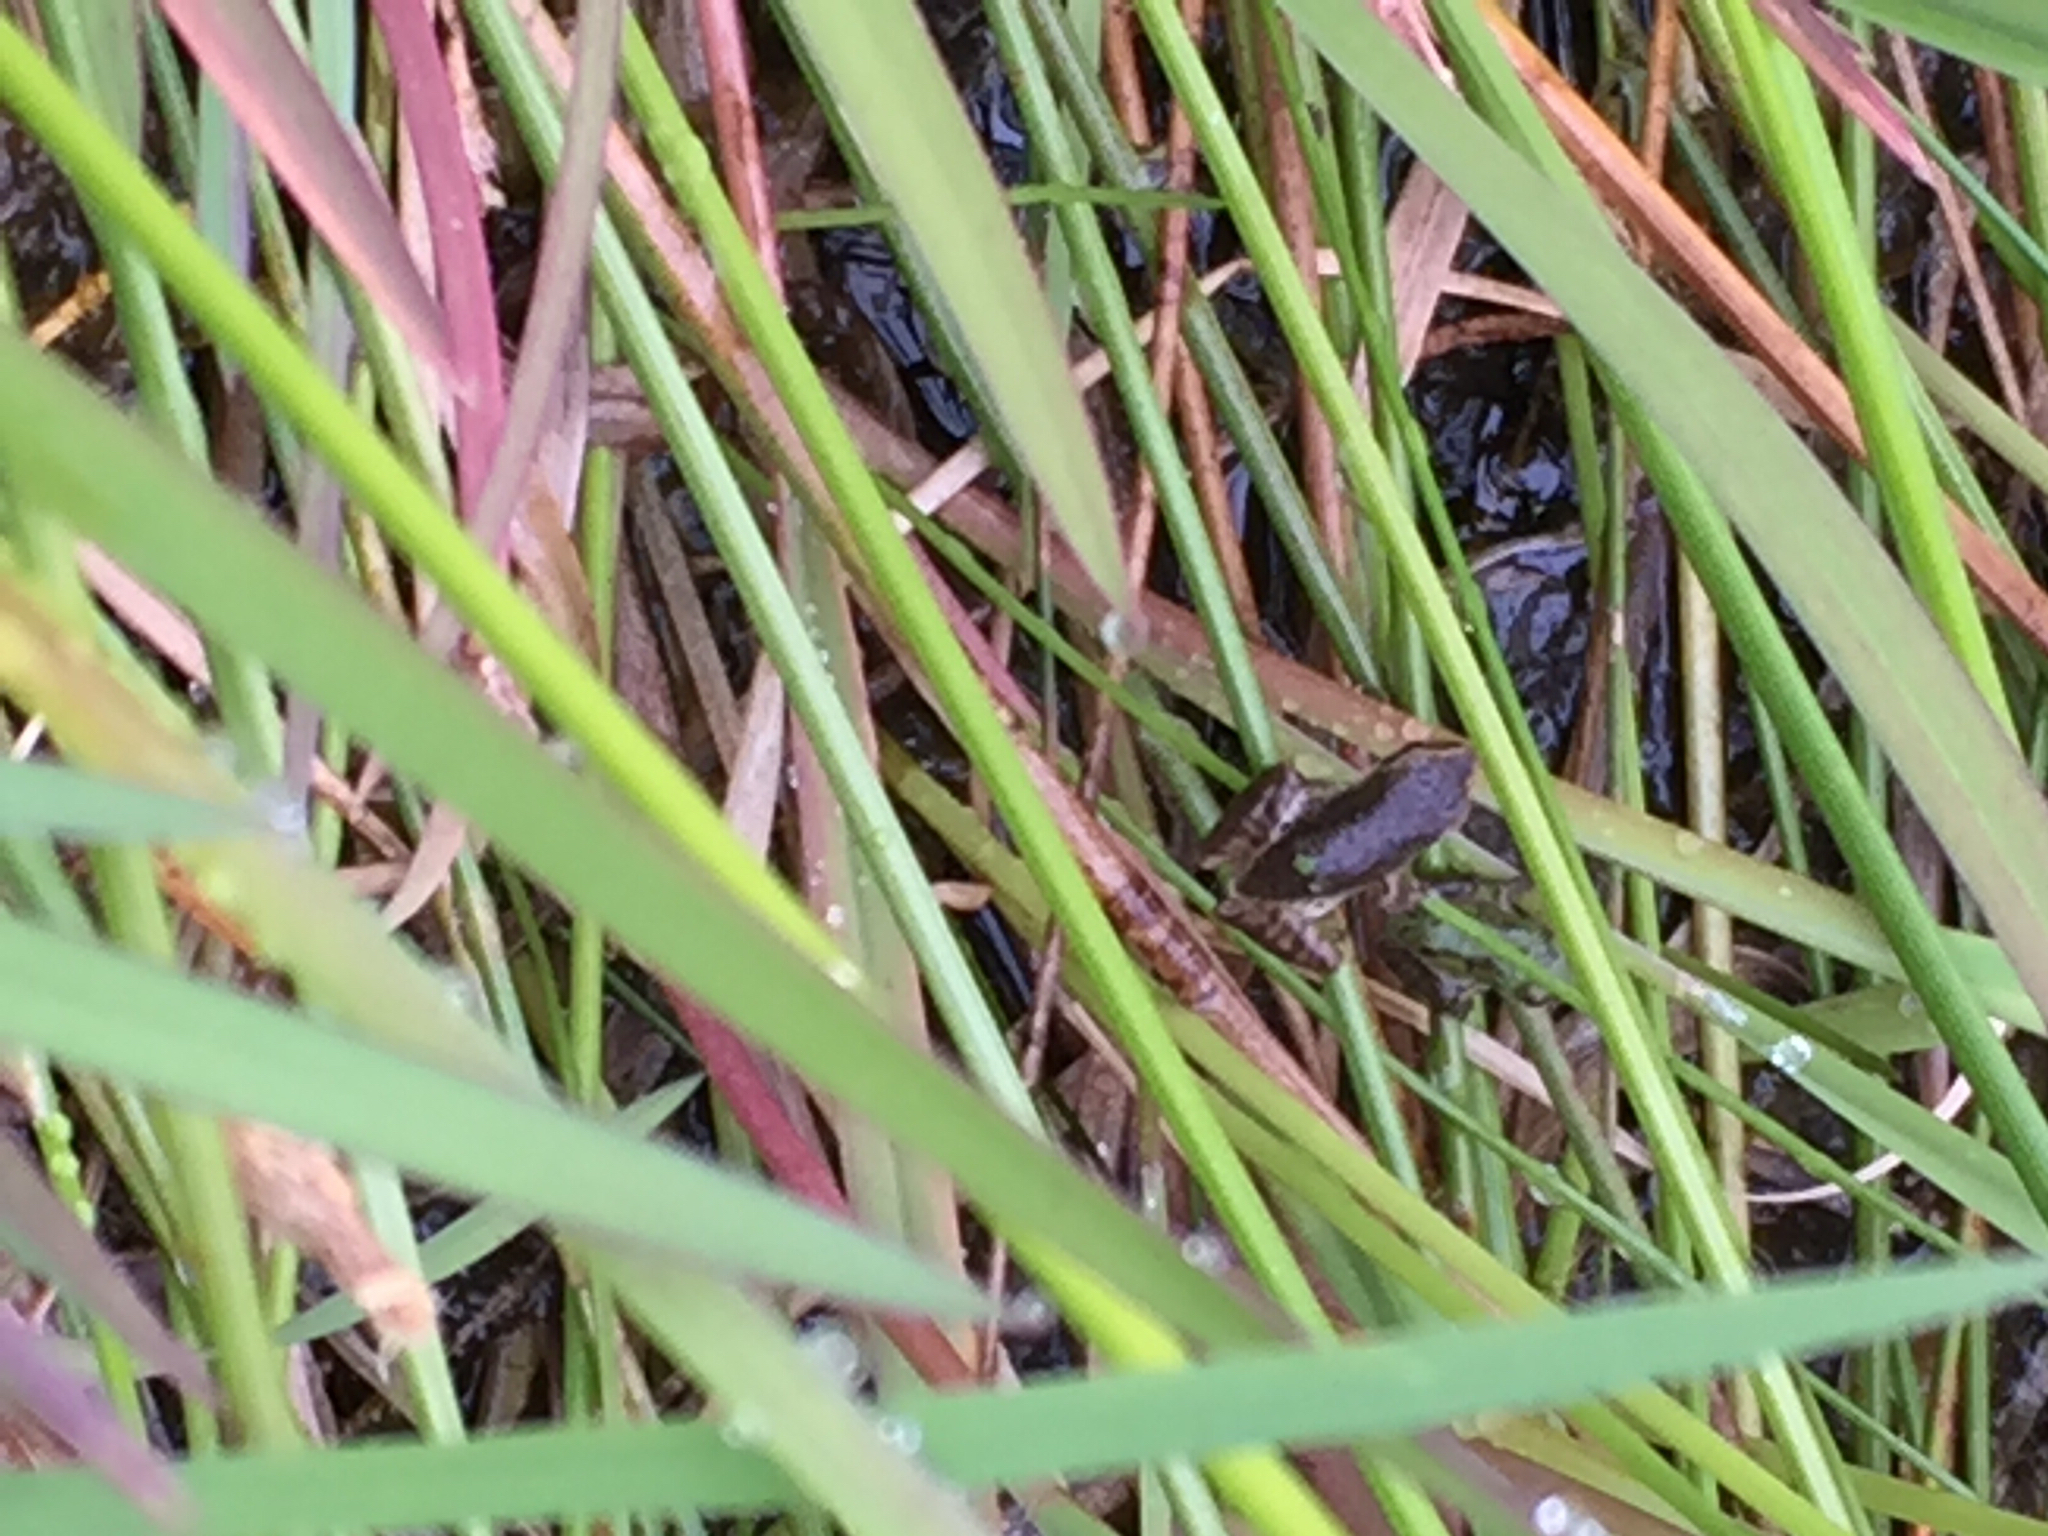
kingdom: Animalia
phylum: Chordata
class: Amphibia
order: Anura
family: Hylidae
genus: Pseudacris
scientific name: Pseudacris regilla
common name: Pacific chorus frog
